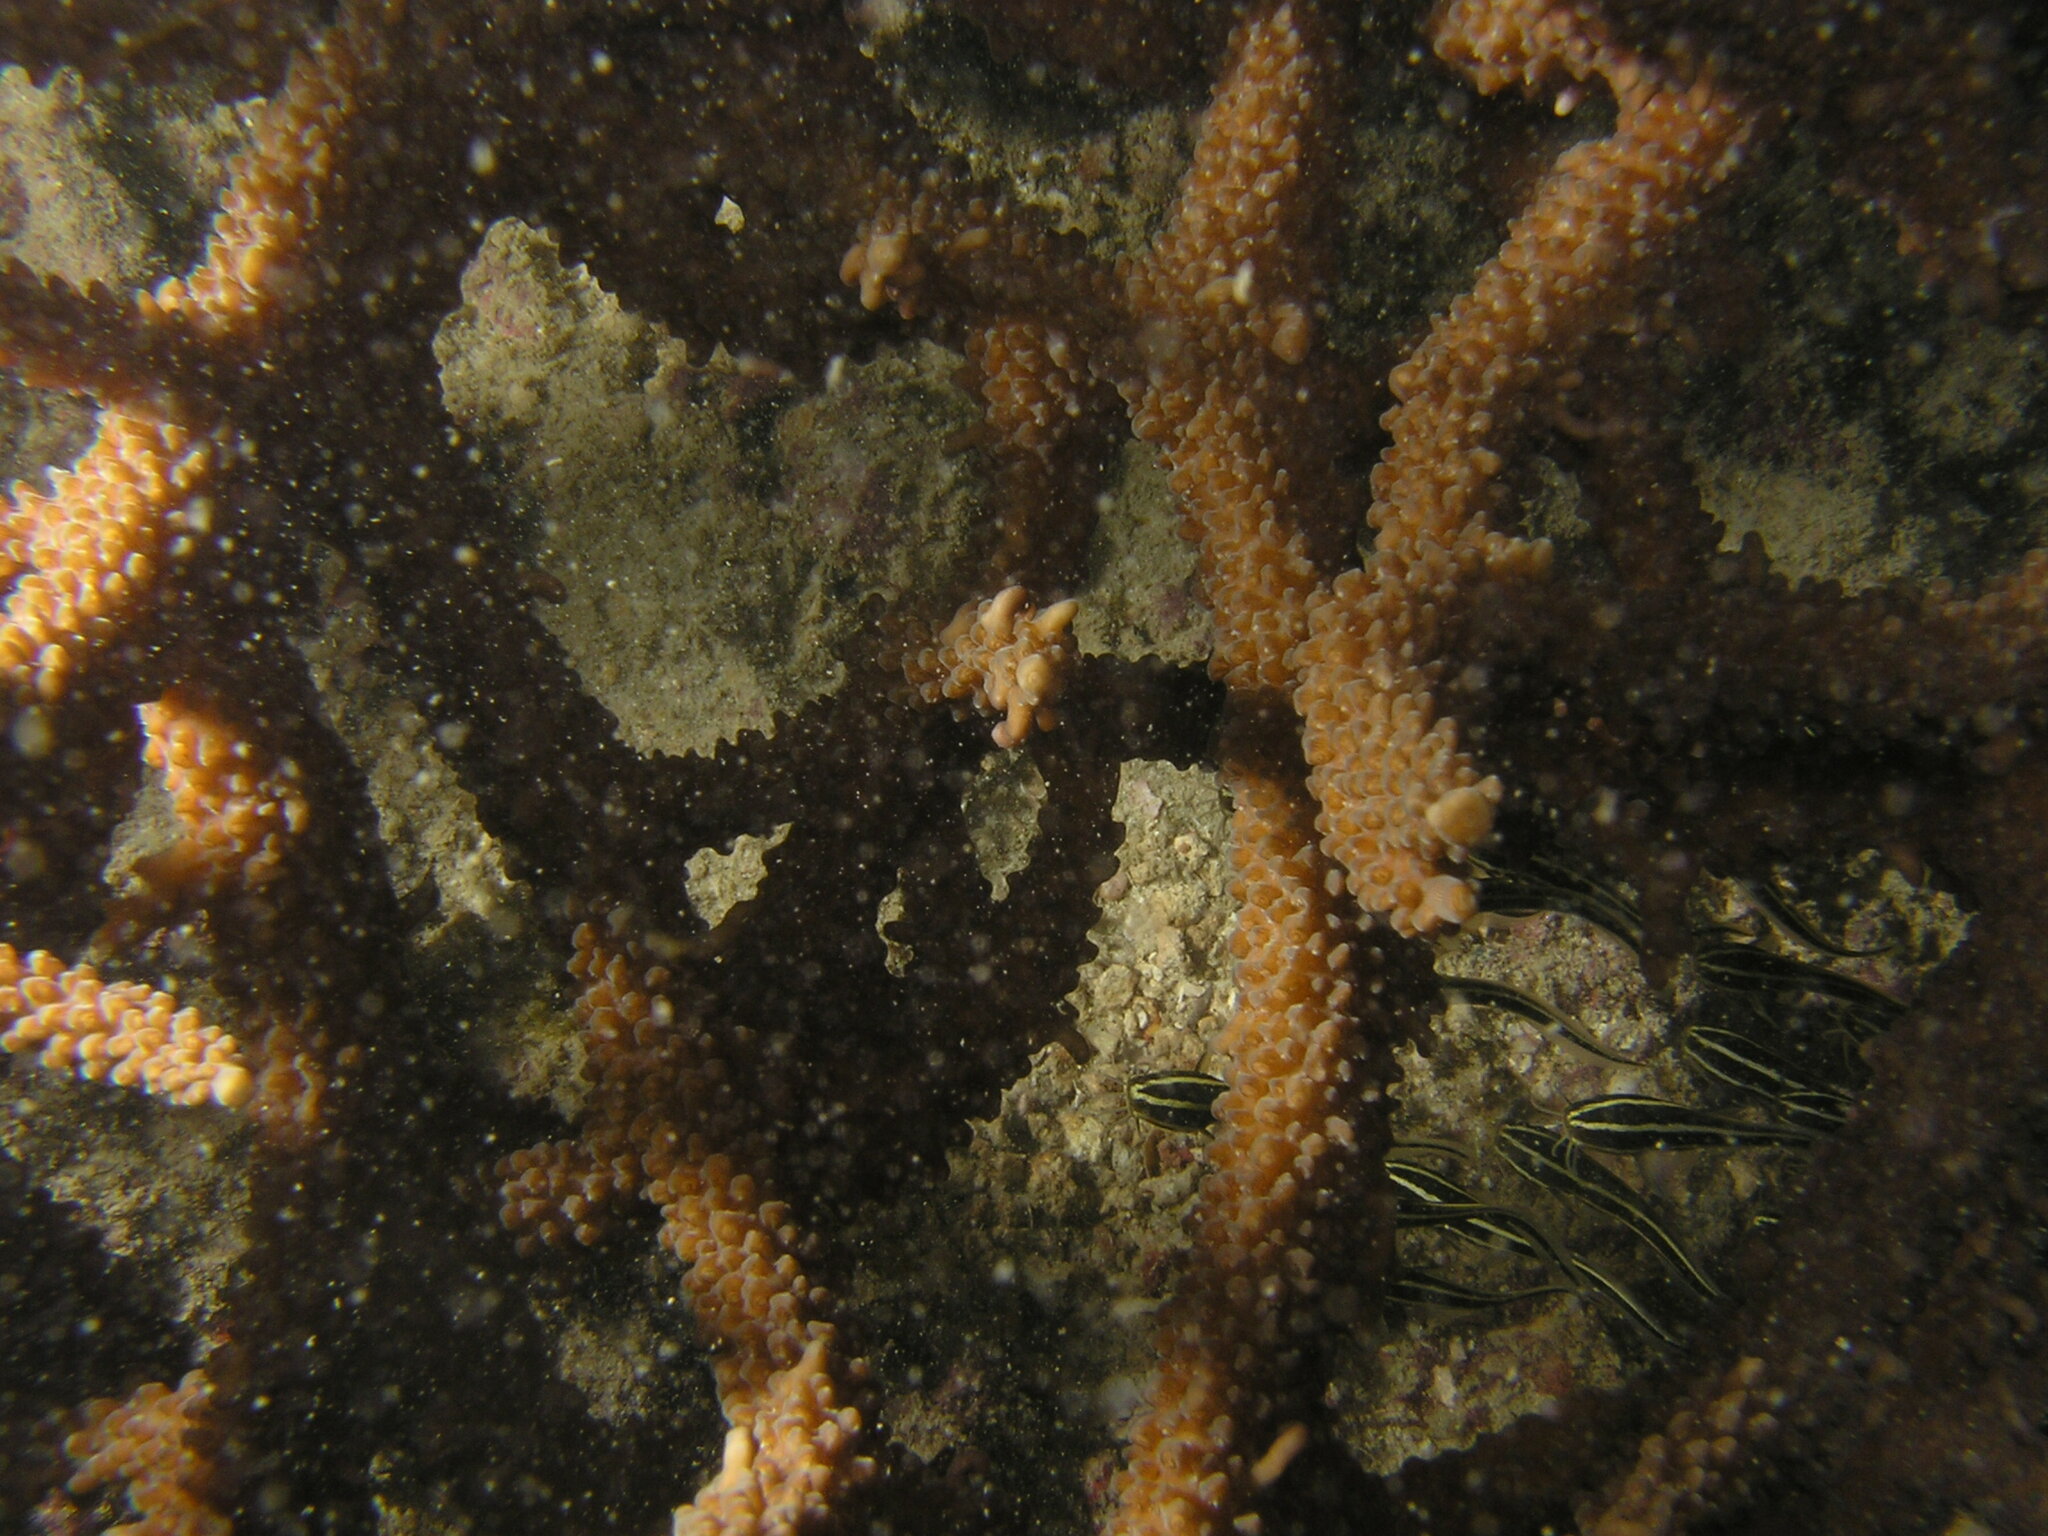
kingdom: Animalia
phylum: Chordata
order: Siluriformes
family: Plotosidae
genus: Plotosus
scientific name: Plotosus lineatus
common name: Striped eel catfish
